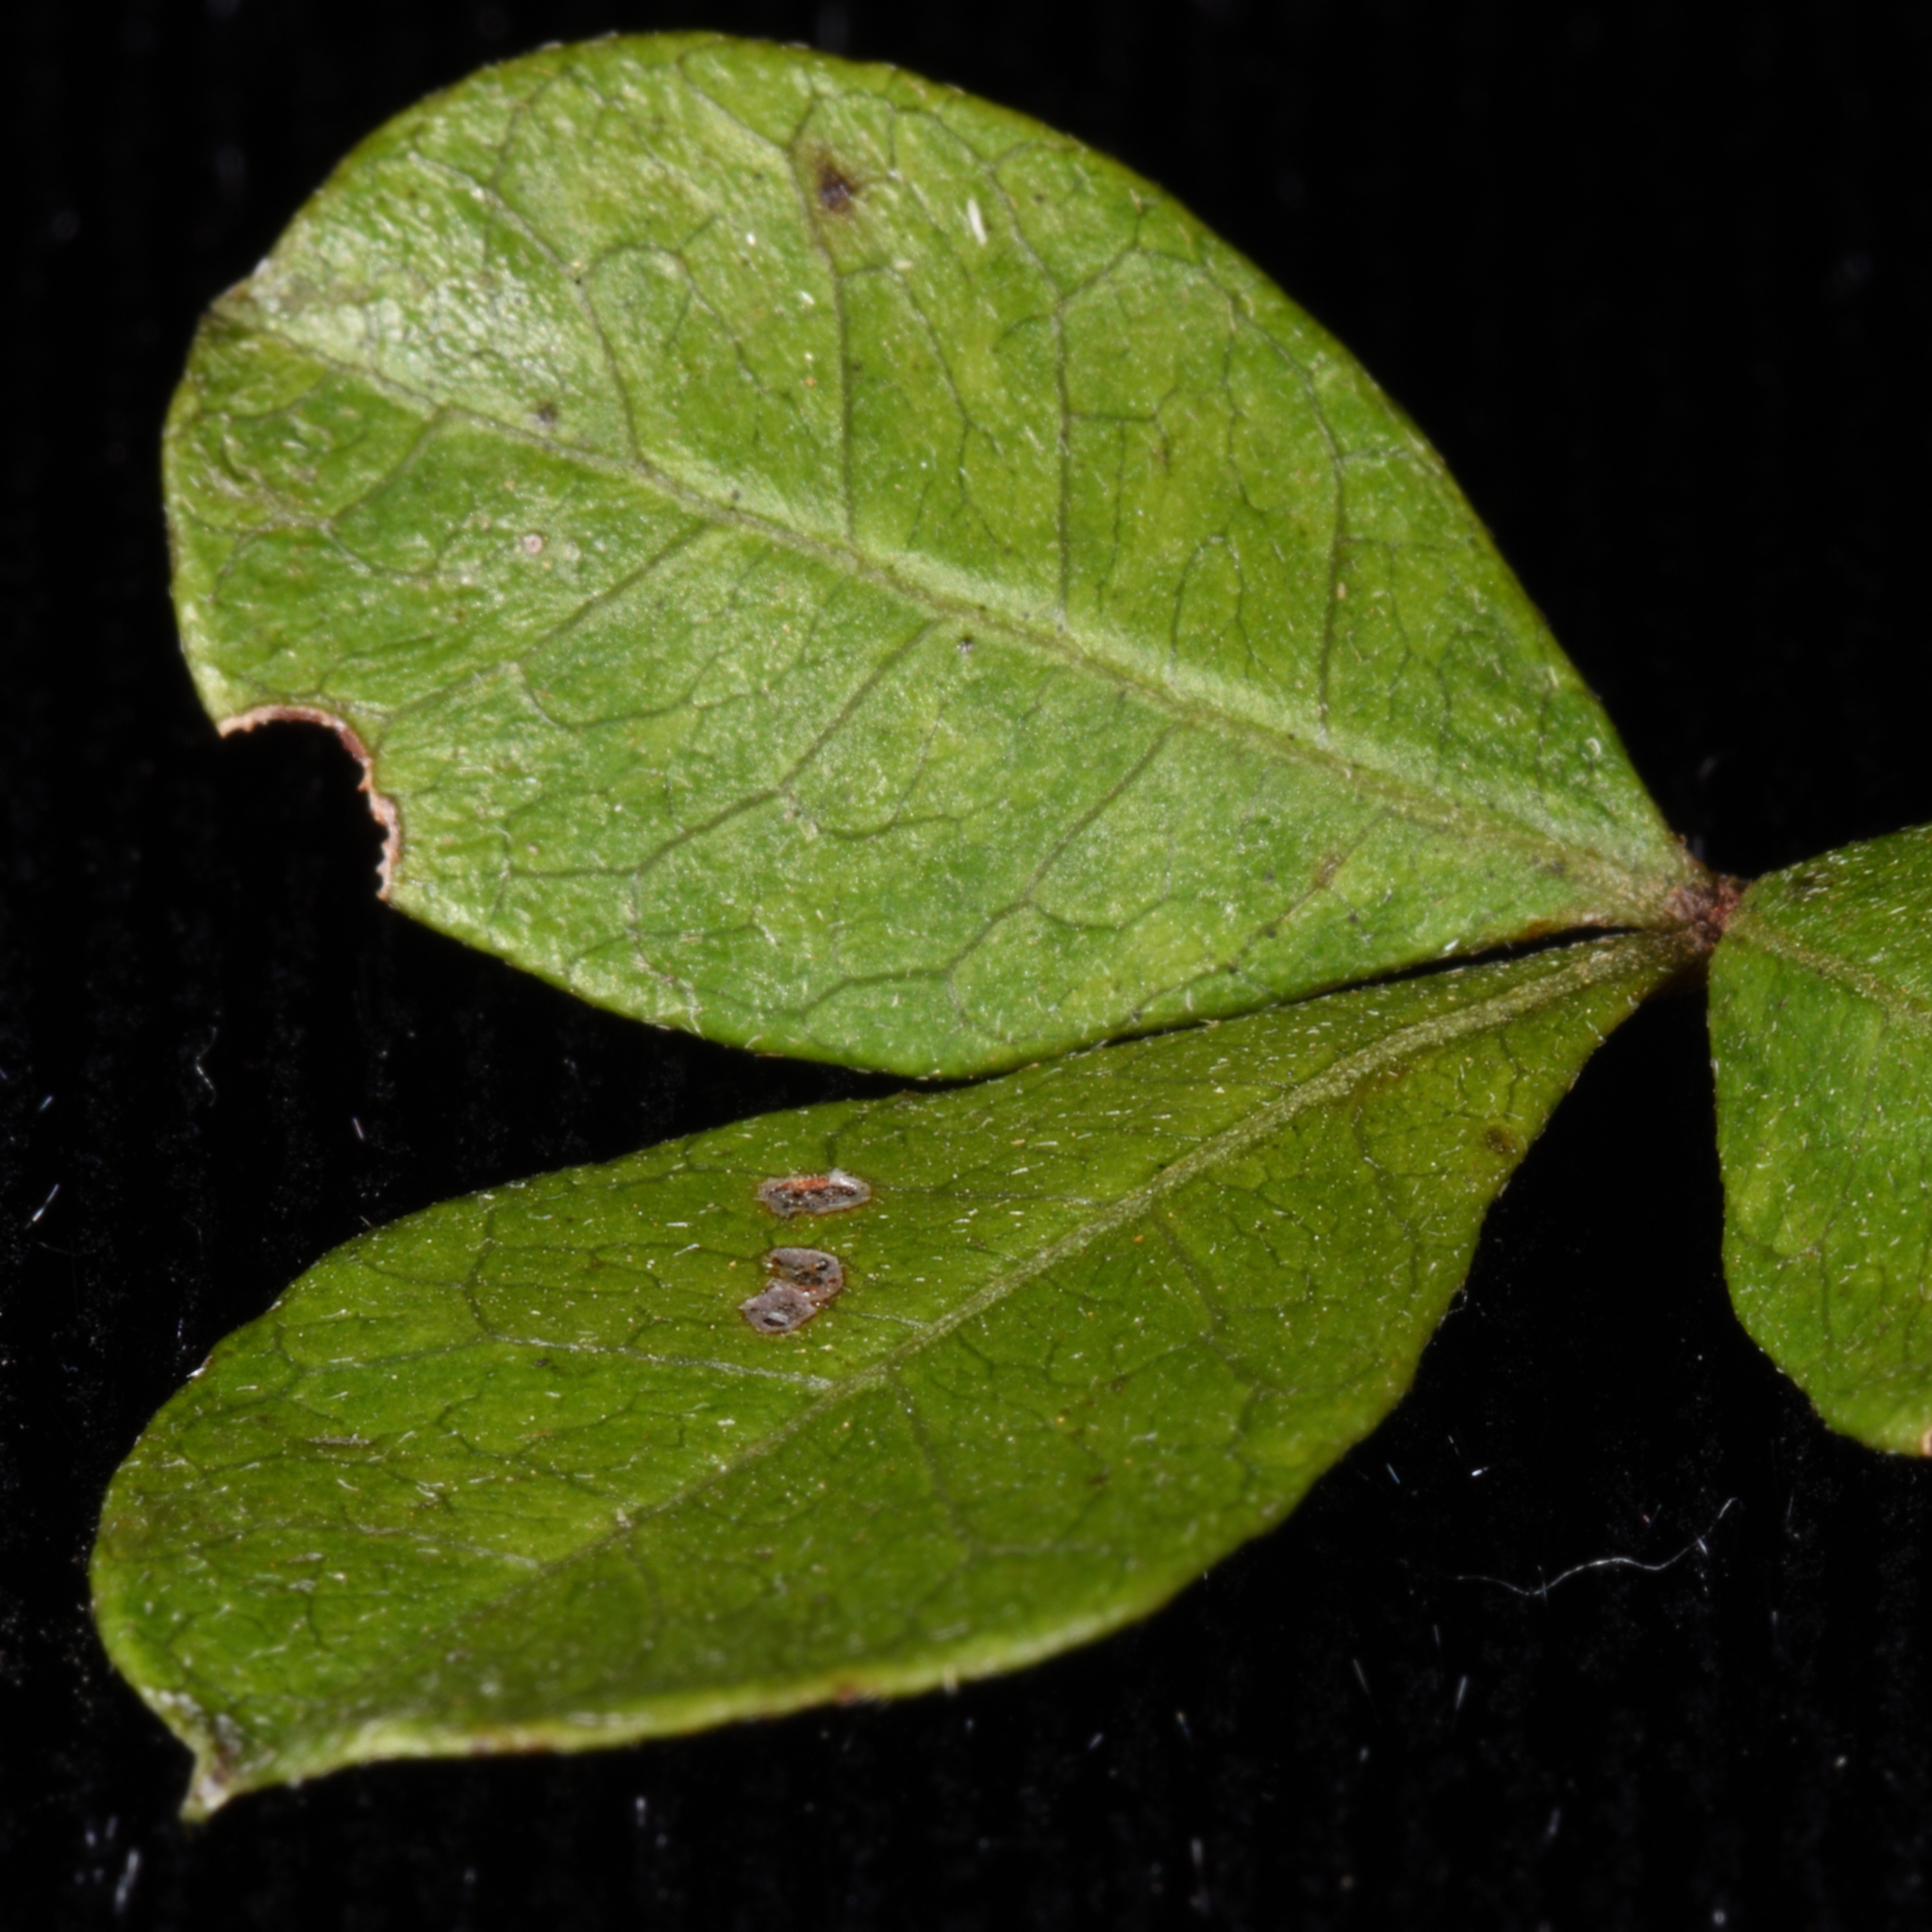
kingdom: Plantae
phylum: Tracheophyta
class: Magnoliopsida
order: Sapindales
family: Anacardiaceae
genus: Searsia
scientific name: Searsia nebulosa
